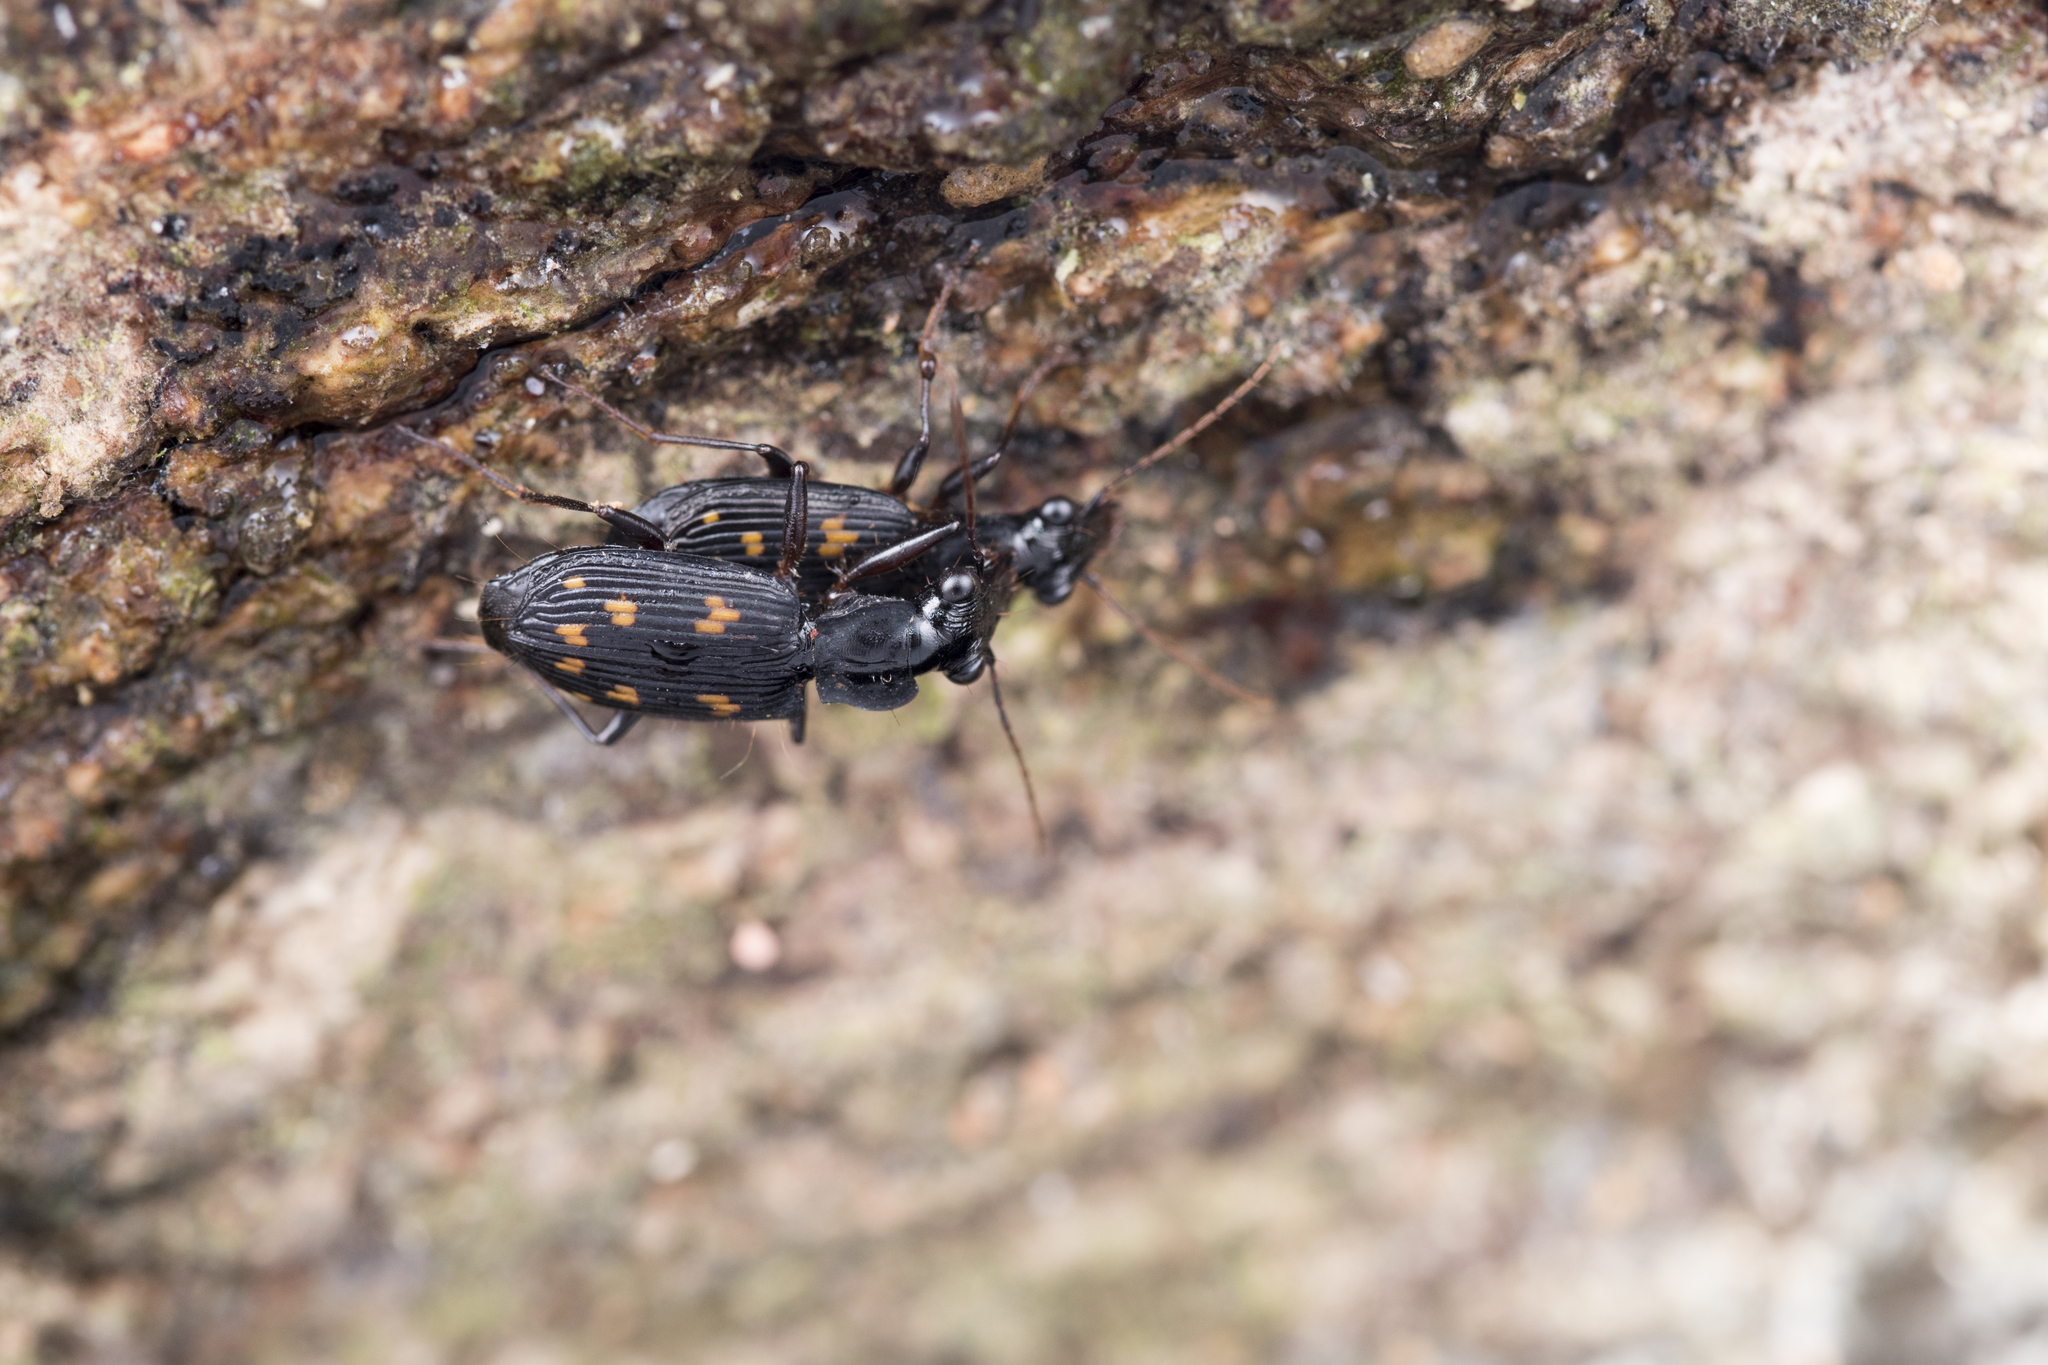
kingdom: Animalia
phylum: Arthropoda
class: Insecta
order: Coleoptera
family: Carabidae
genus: Pericalus
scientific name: Pericalus ornatus
